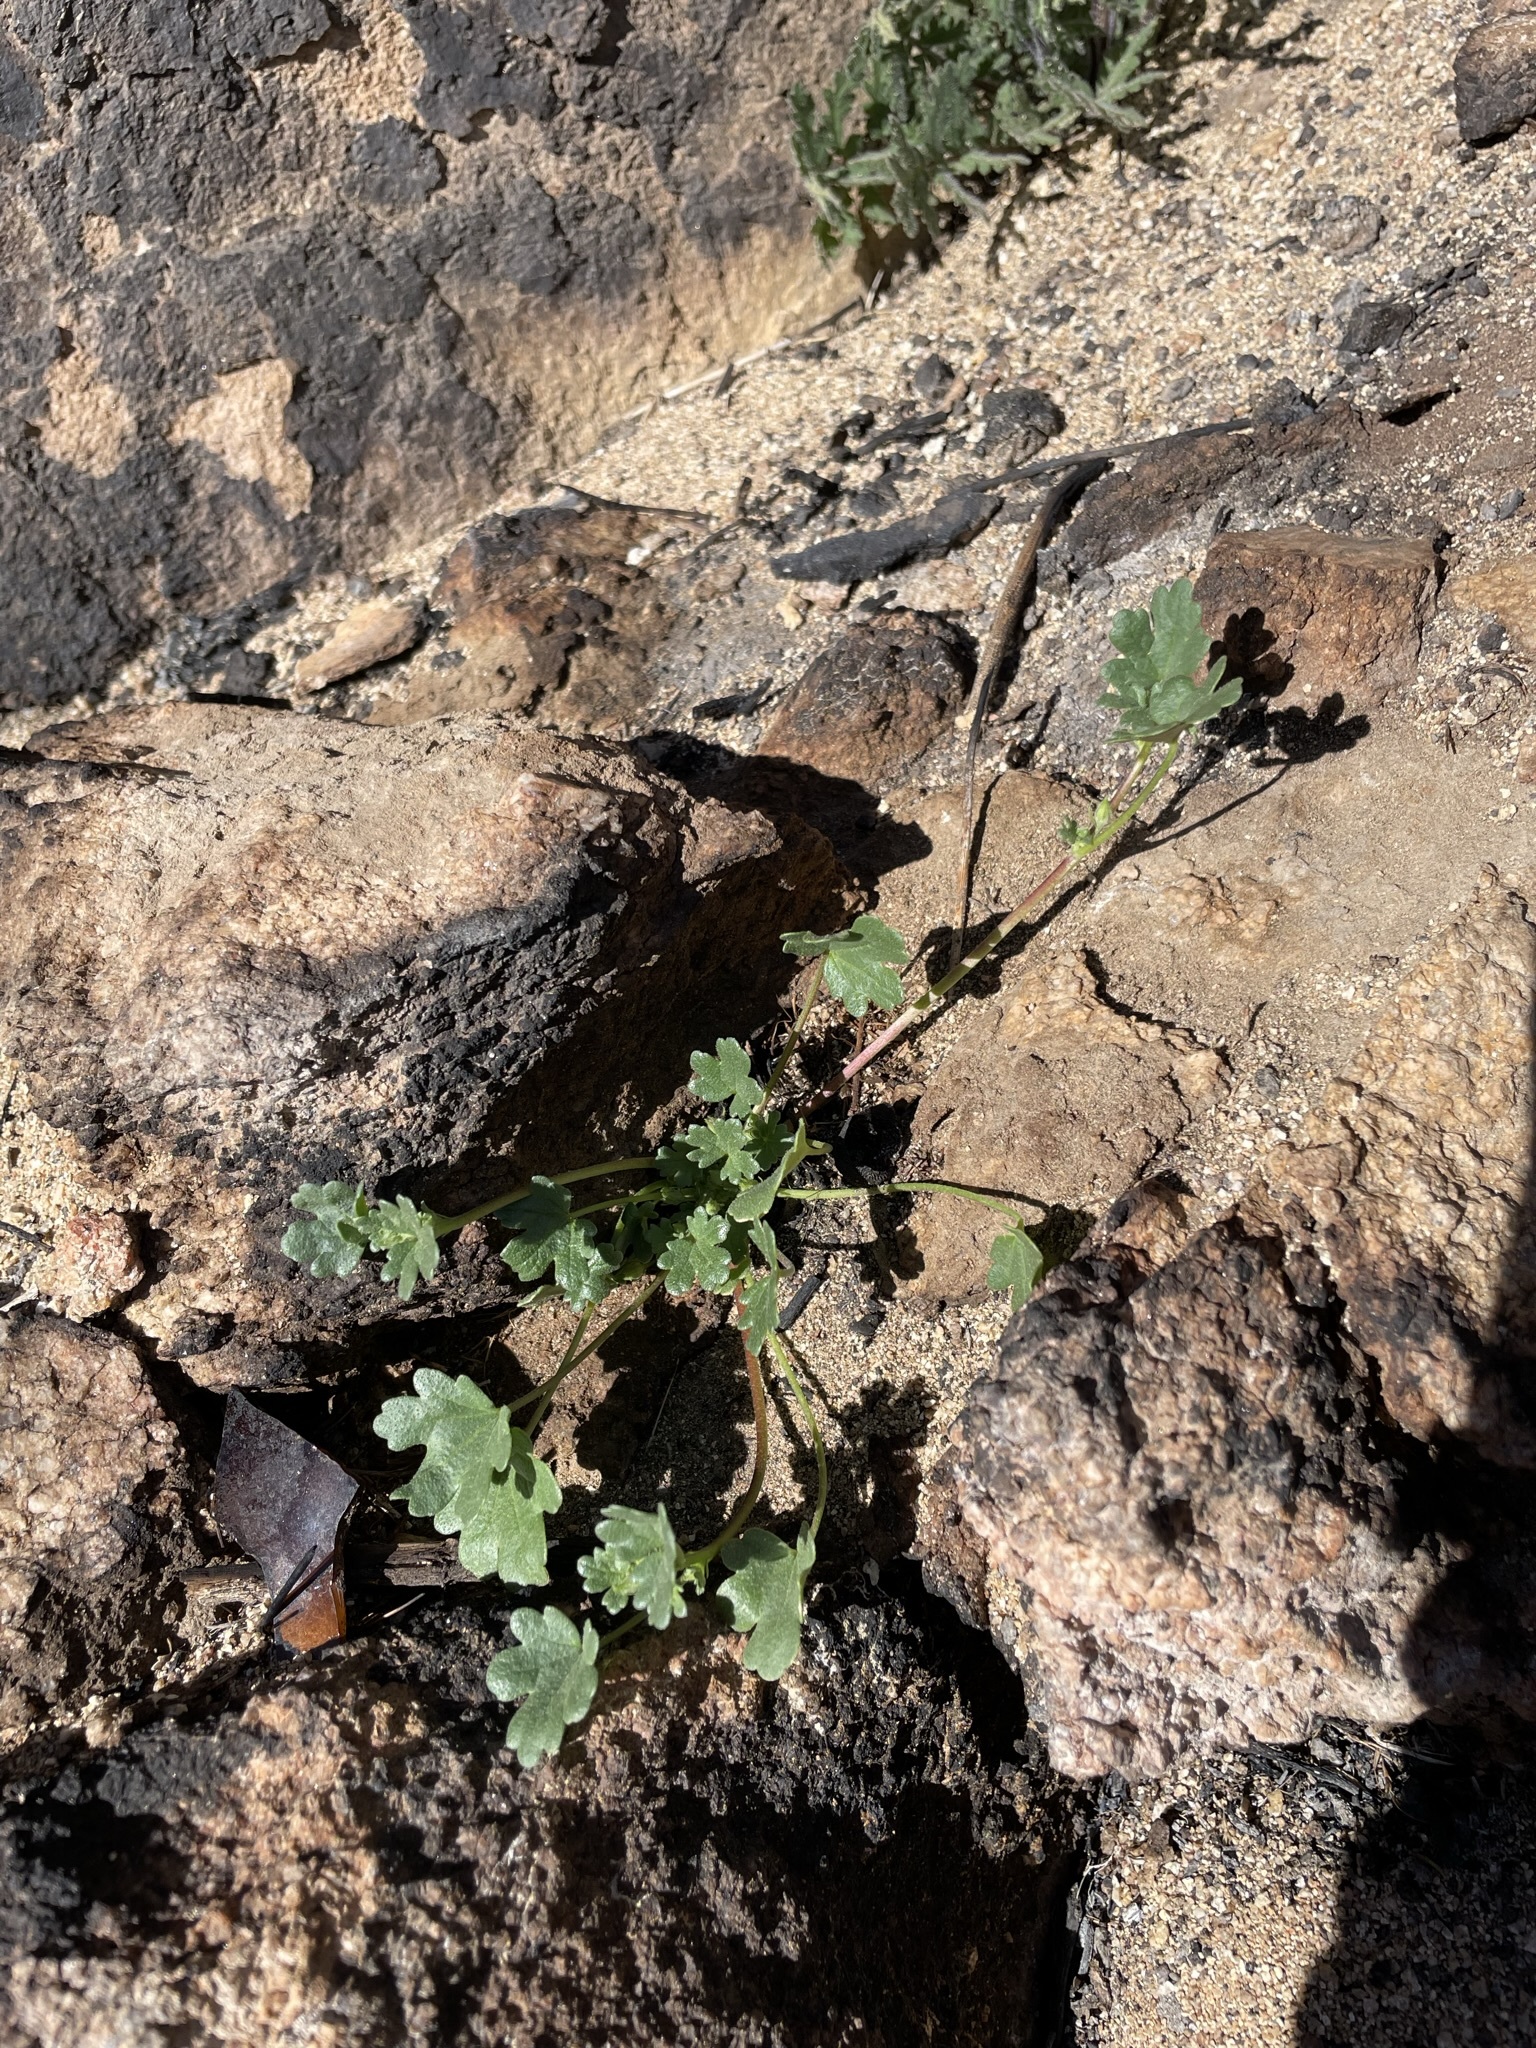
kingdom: Plantae
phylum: Tracheophyta
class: Magnoliopsida
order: Malvales
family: Malvaceae
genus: Eremalche
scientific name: Eremalche exilis
